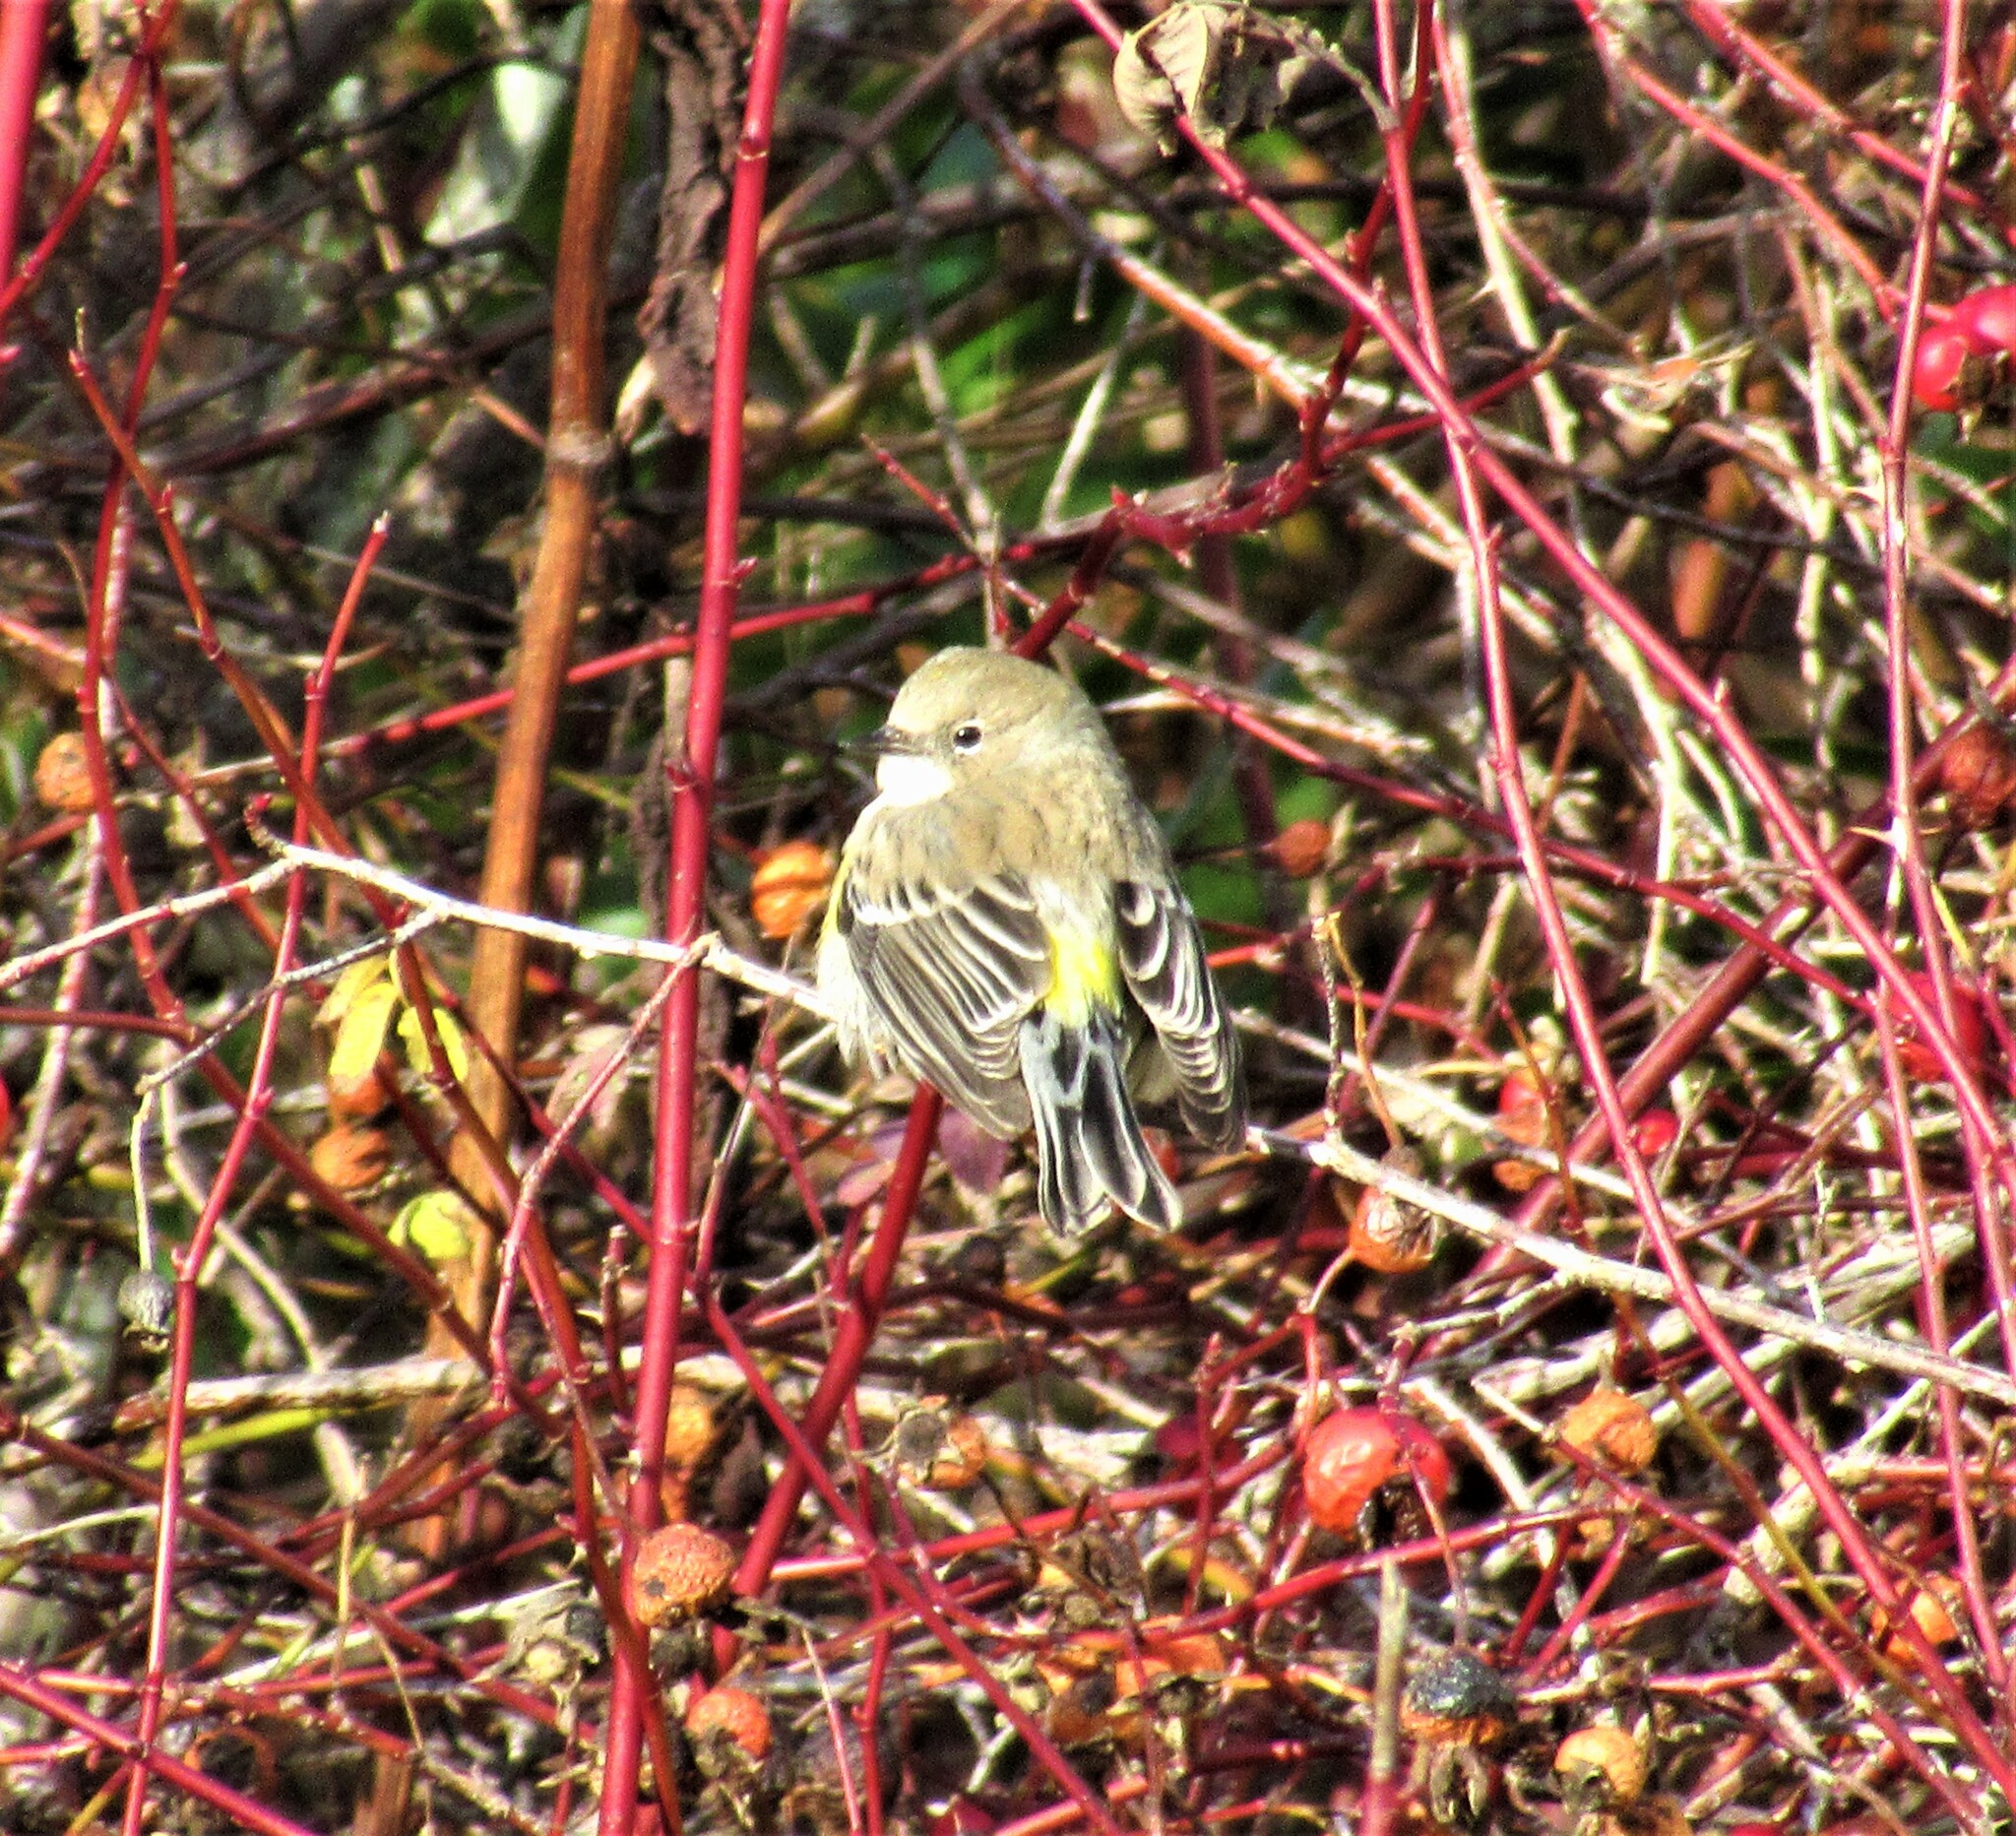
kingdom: Animalia
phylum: Chordata
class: Aves
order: Passeriformes
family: Parulidae
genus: Setophaga
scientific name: Setophaga coronata
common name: Myrtle warbler
